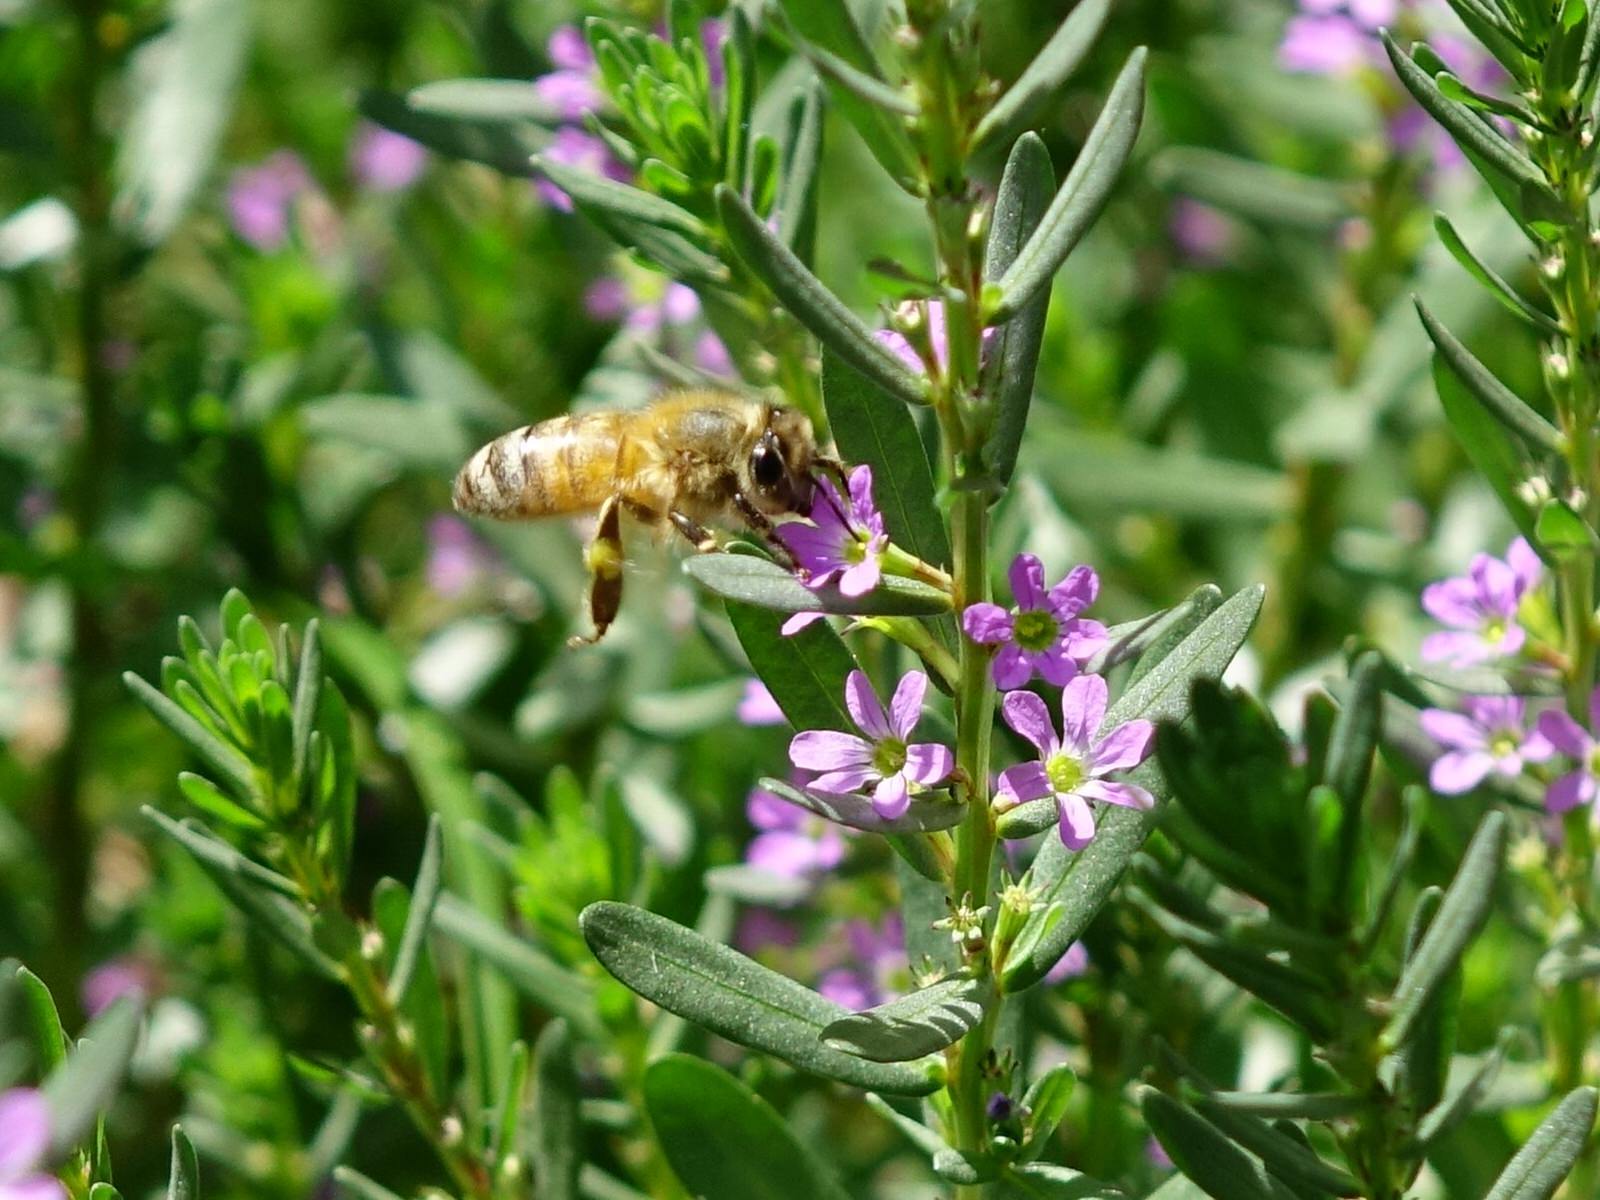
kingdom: Animalia
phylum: Arthropoda
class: Insecta
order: Hymenoptera
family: Apidae
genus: Apis
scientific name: Apis mellifera
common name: Honey bee
